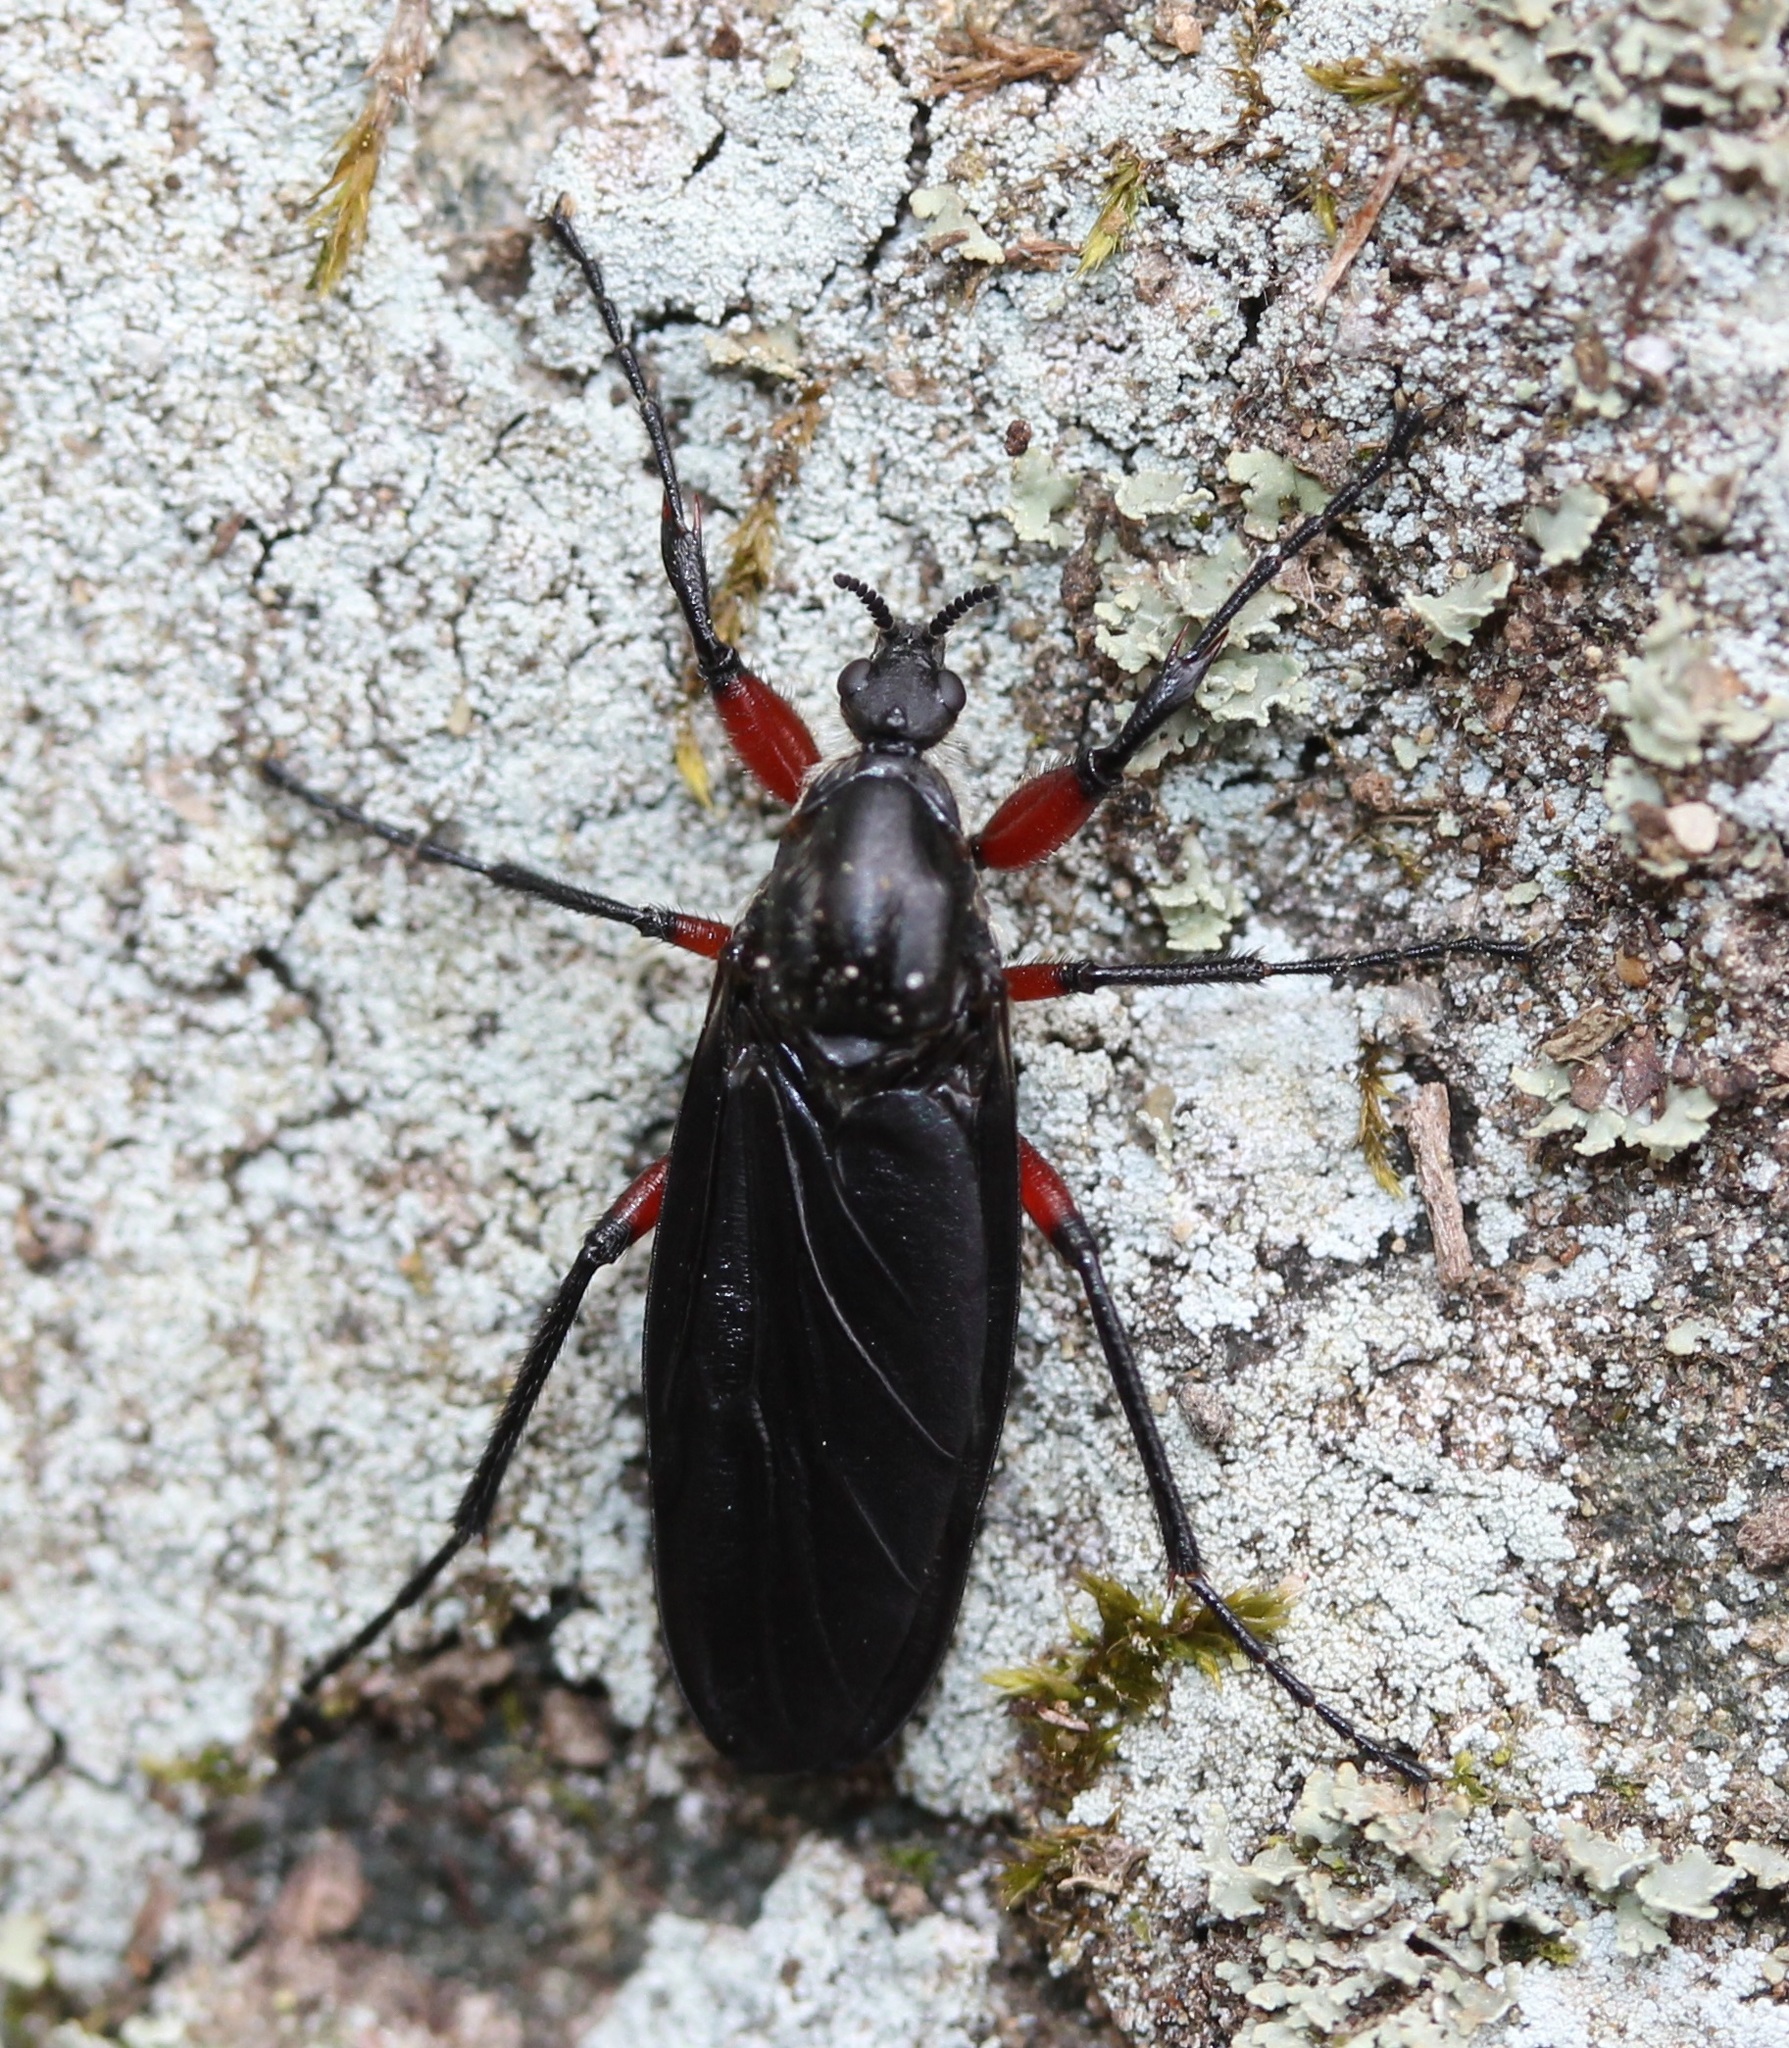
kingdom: Animalia
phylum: Arthropoda
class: Insecta
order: Diptera
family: Bibionidae
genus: Bibio
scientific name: Bibio femoratus
